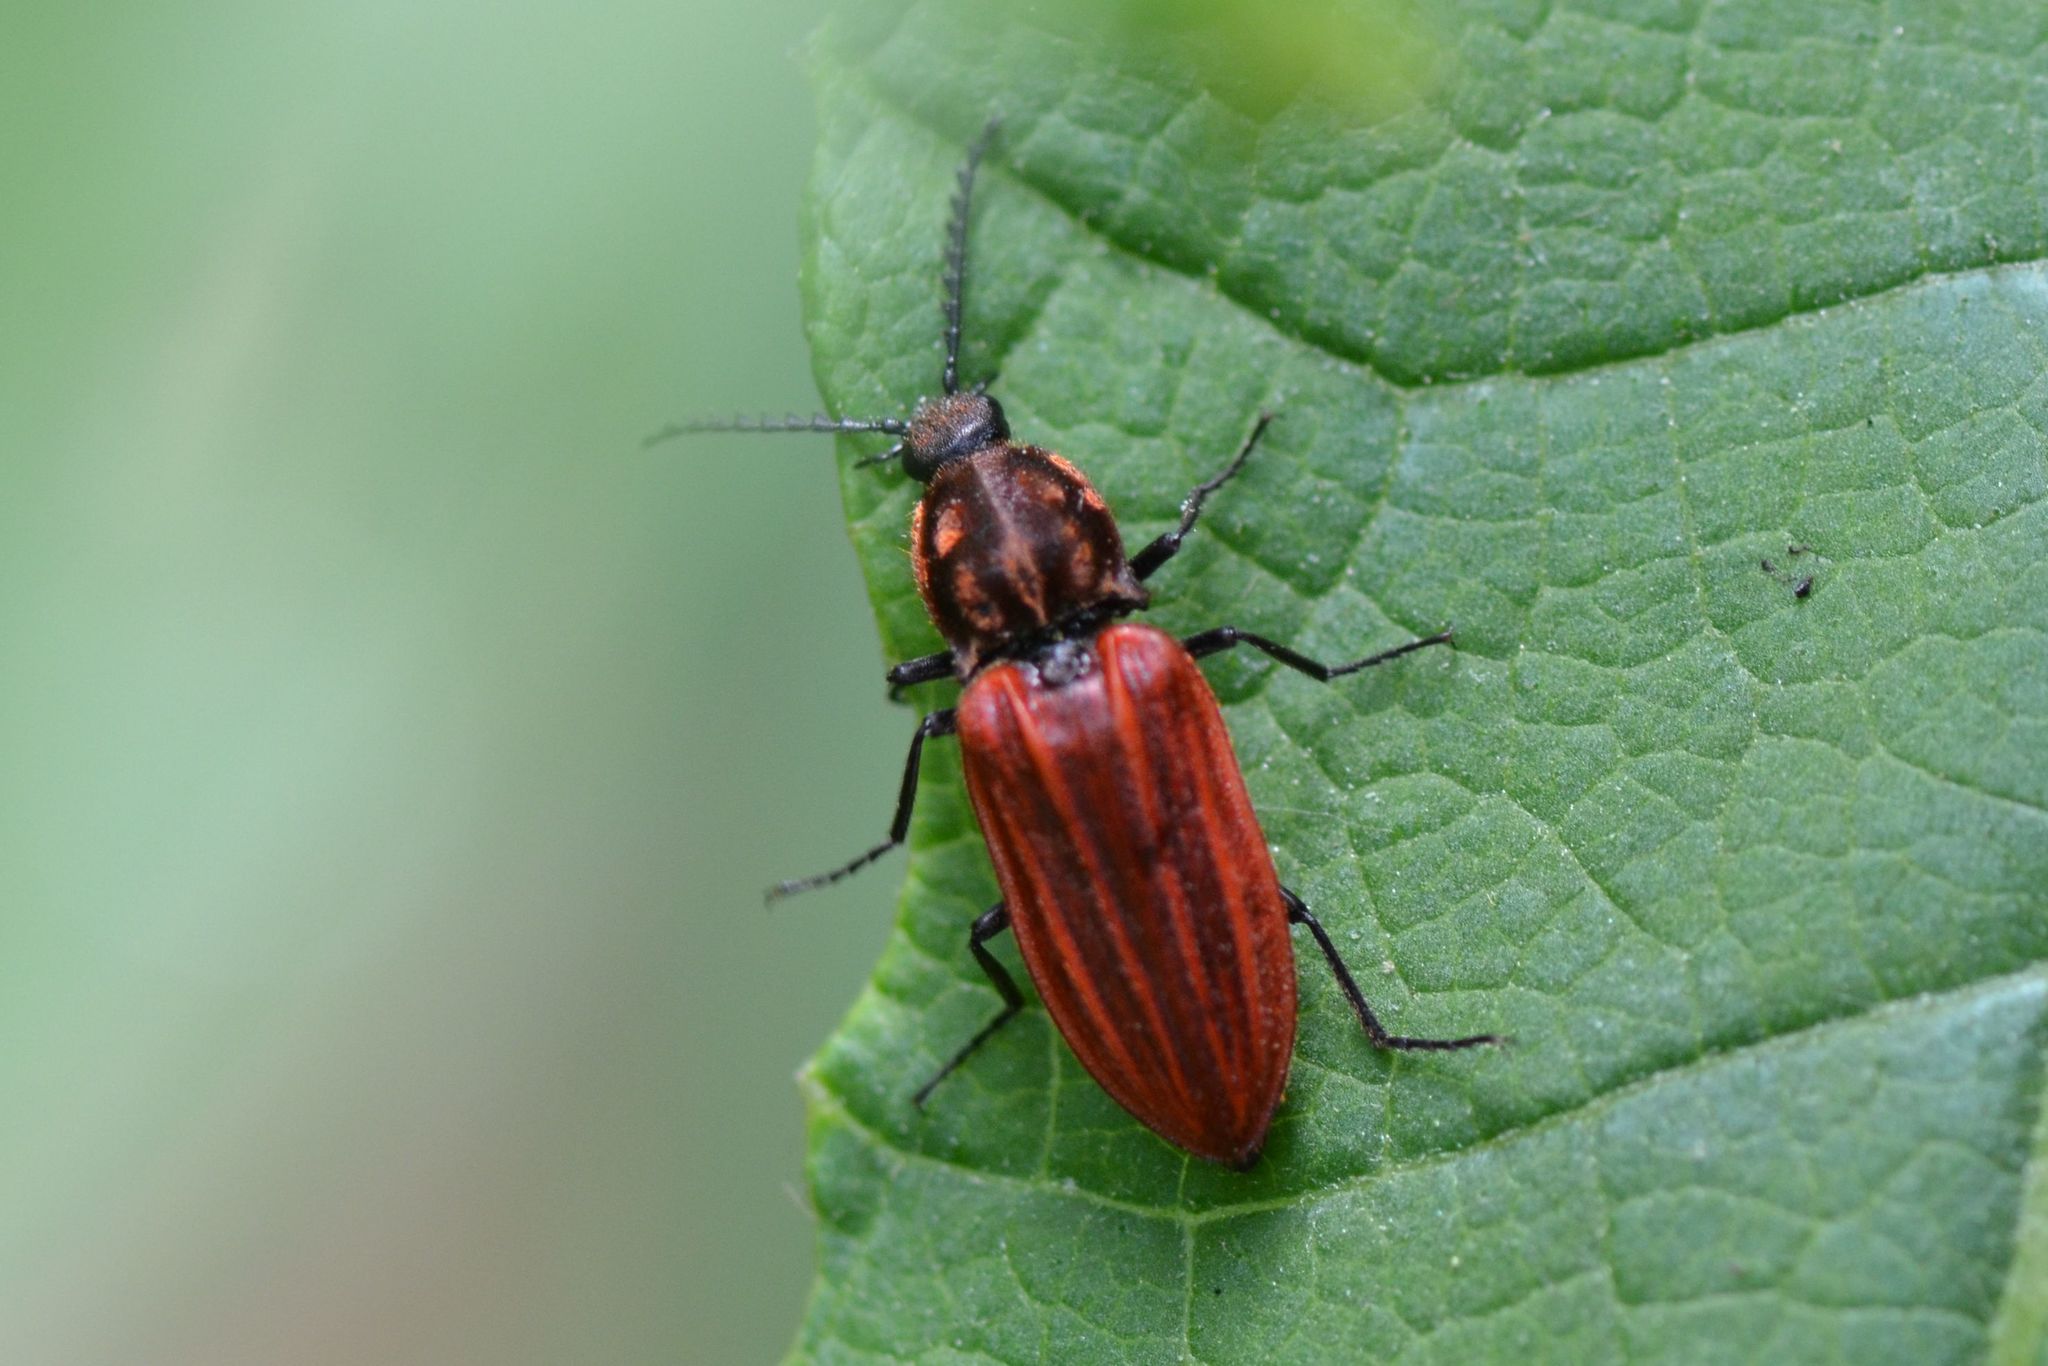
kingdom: Animalia
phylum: Arthropoda
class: Insecta
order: Coleoptera
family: Elateridae
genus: Anostirus
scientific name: Anostirus
